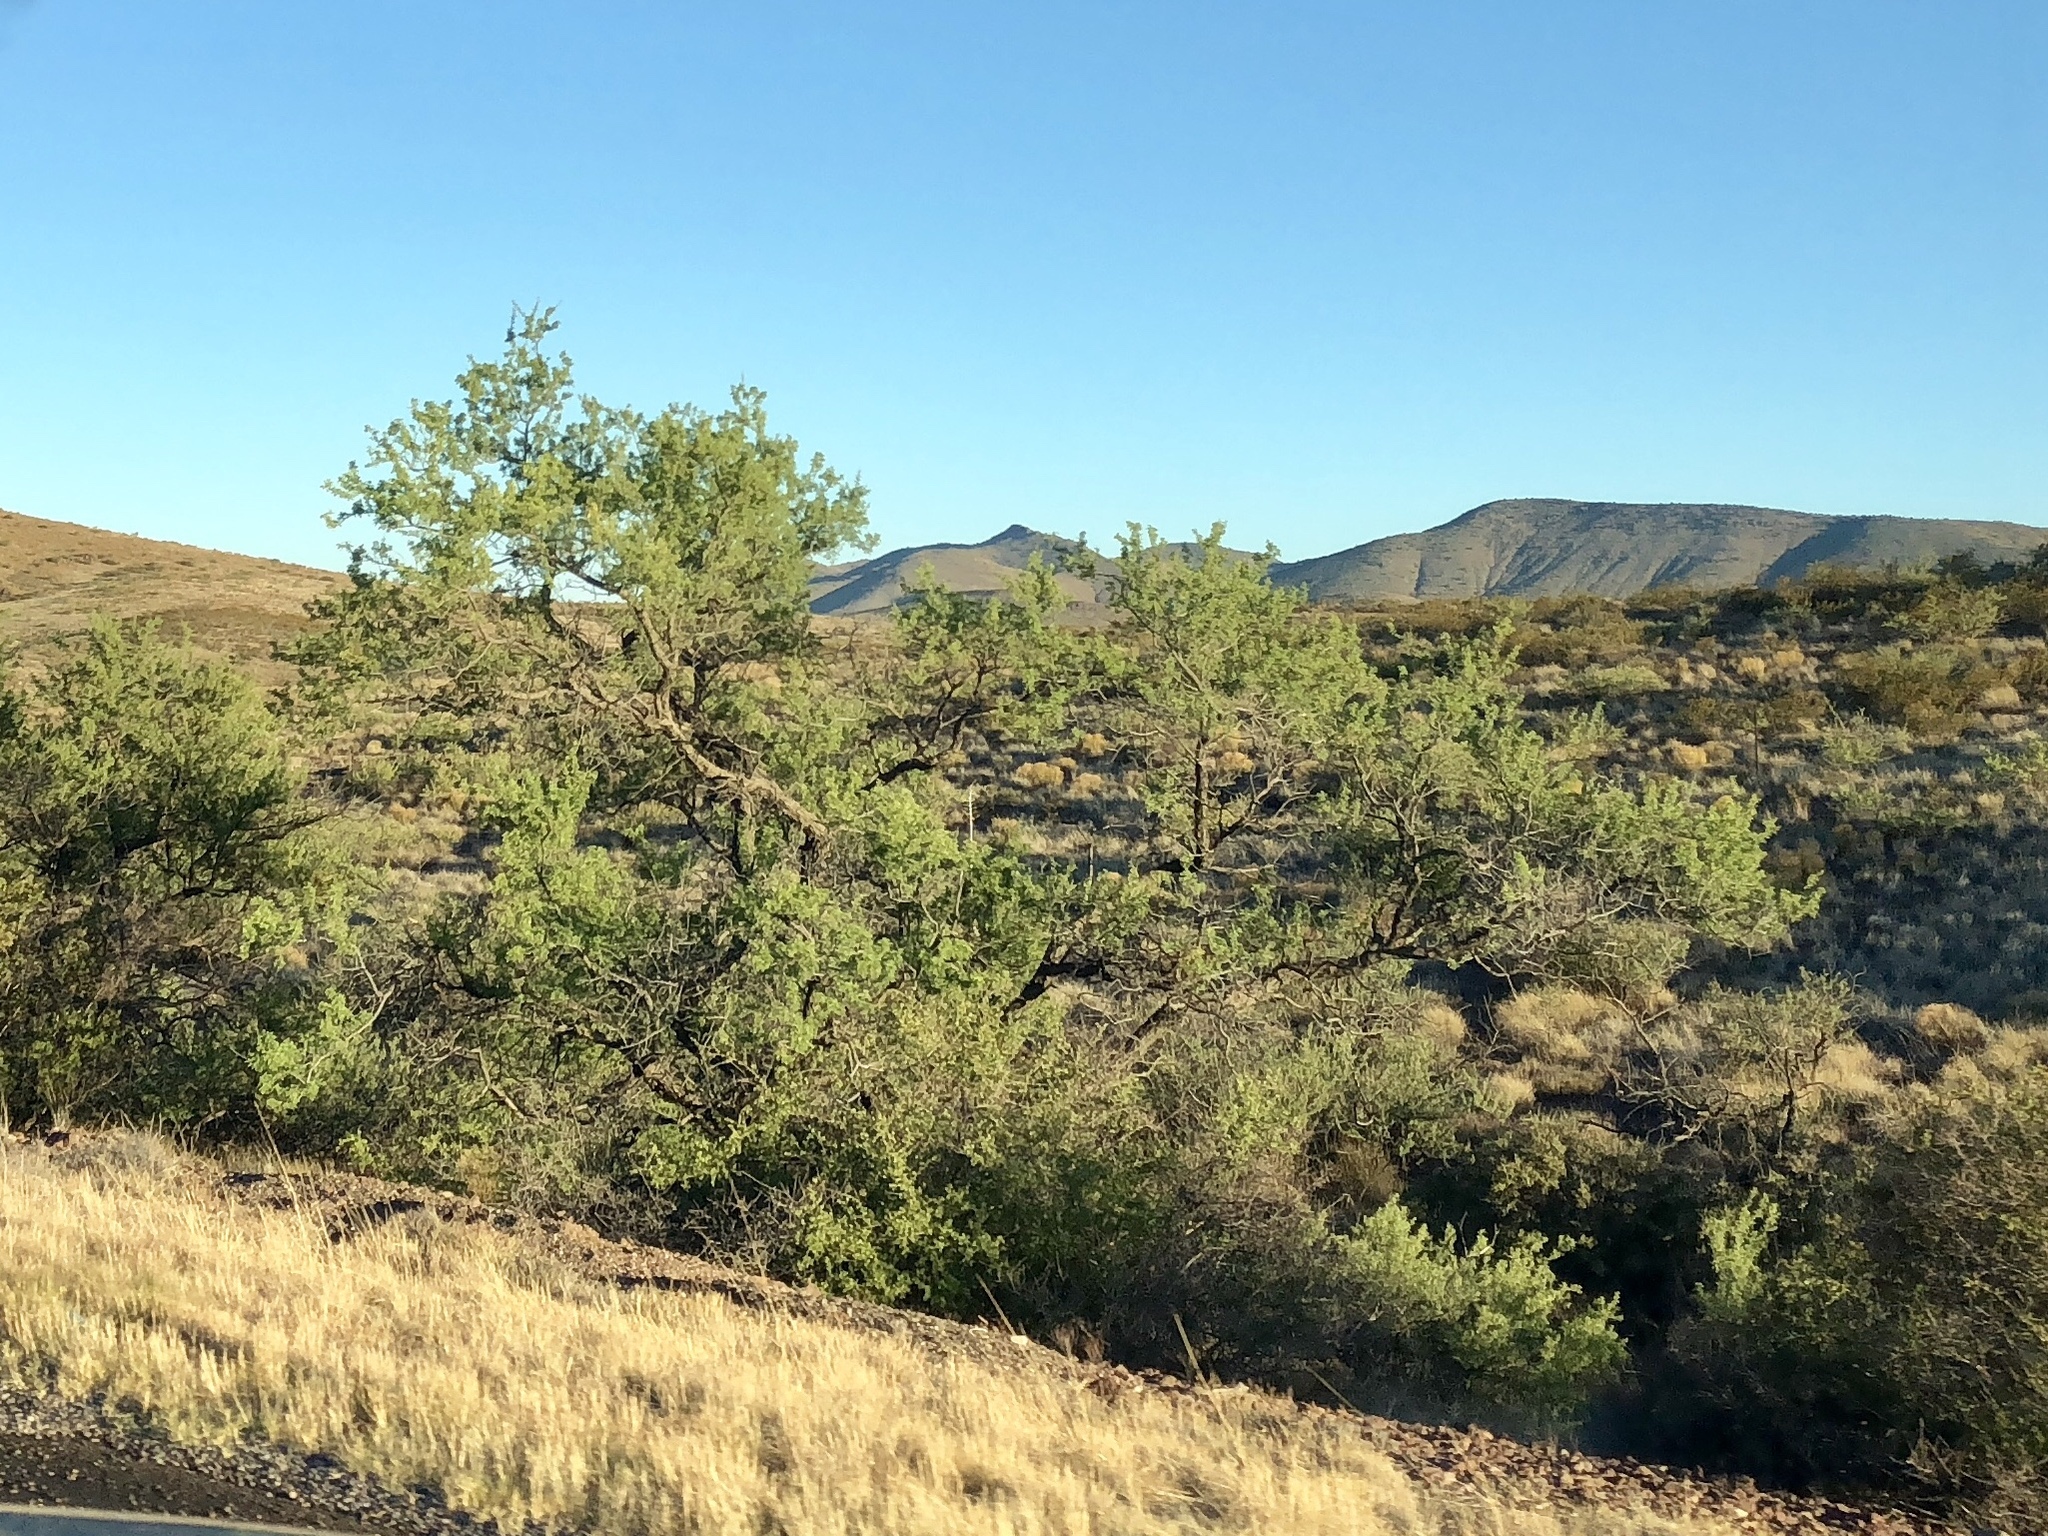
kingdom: Plantae
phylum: Tracheophyta
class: Magnoliopsida
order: Fabales
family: Fabaceae
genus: Senegalia
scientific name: Senegalia greggii
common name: Texas-mimosa
